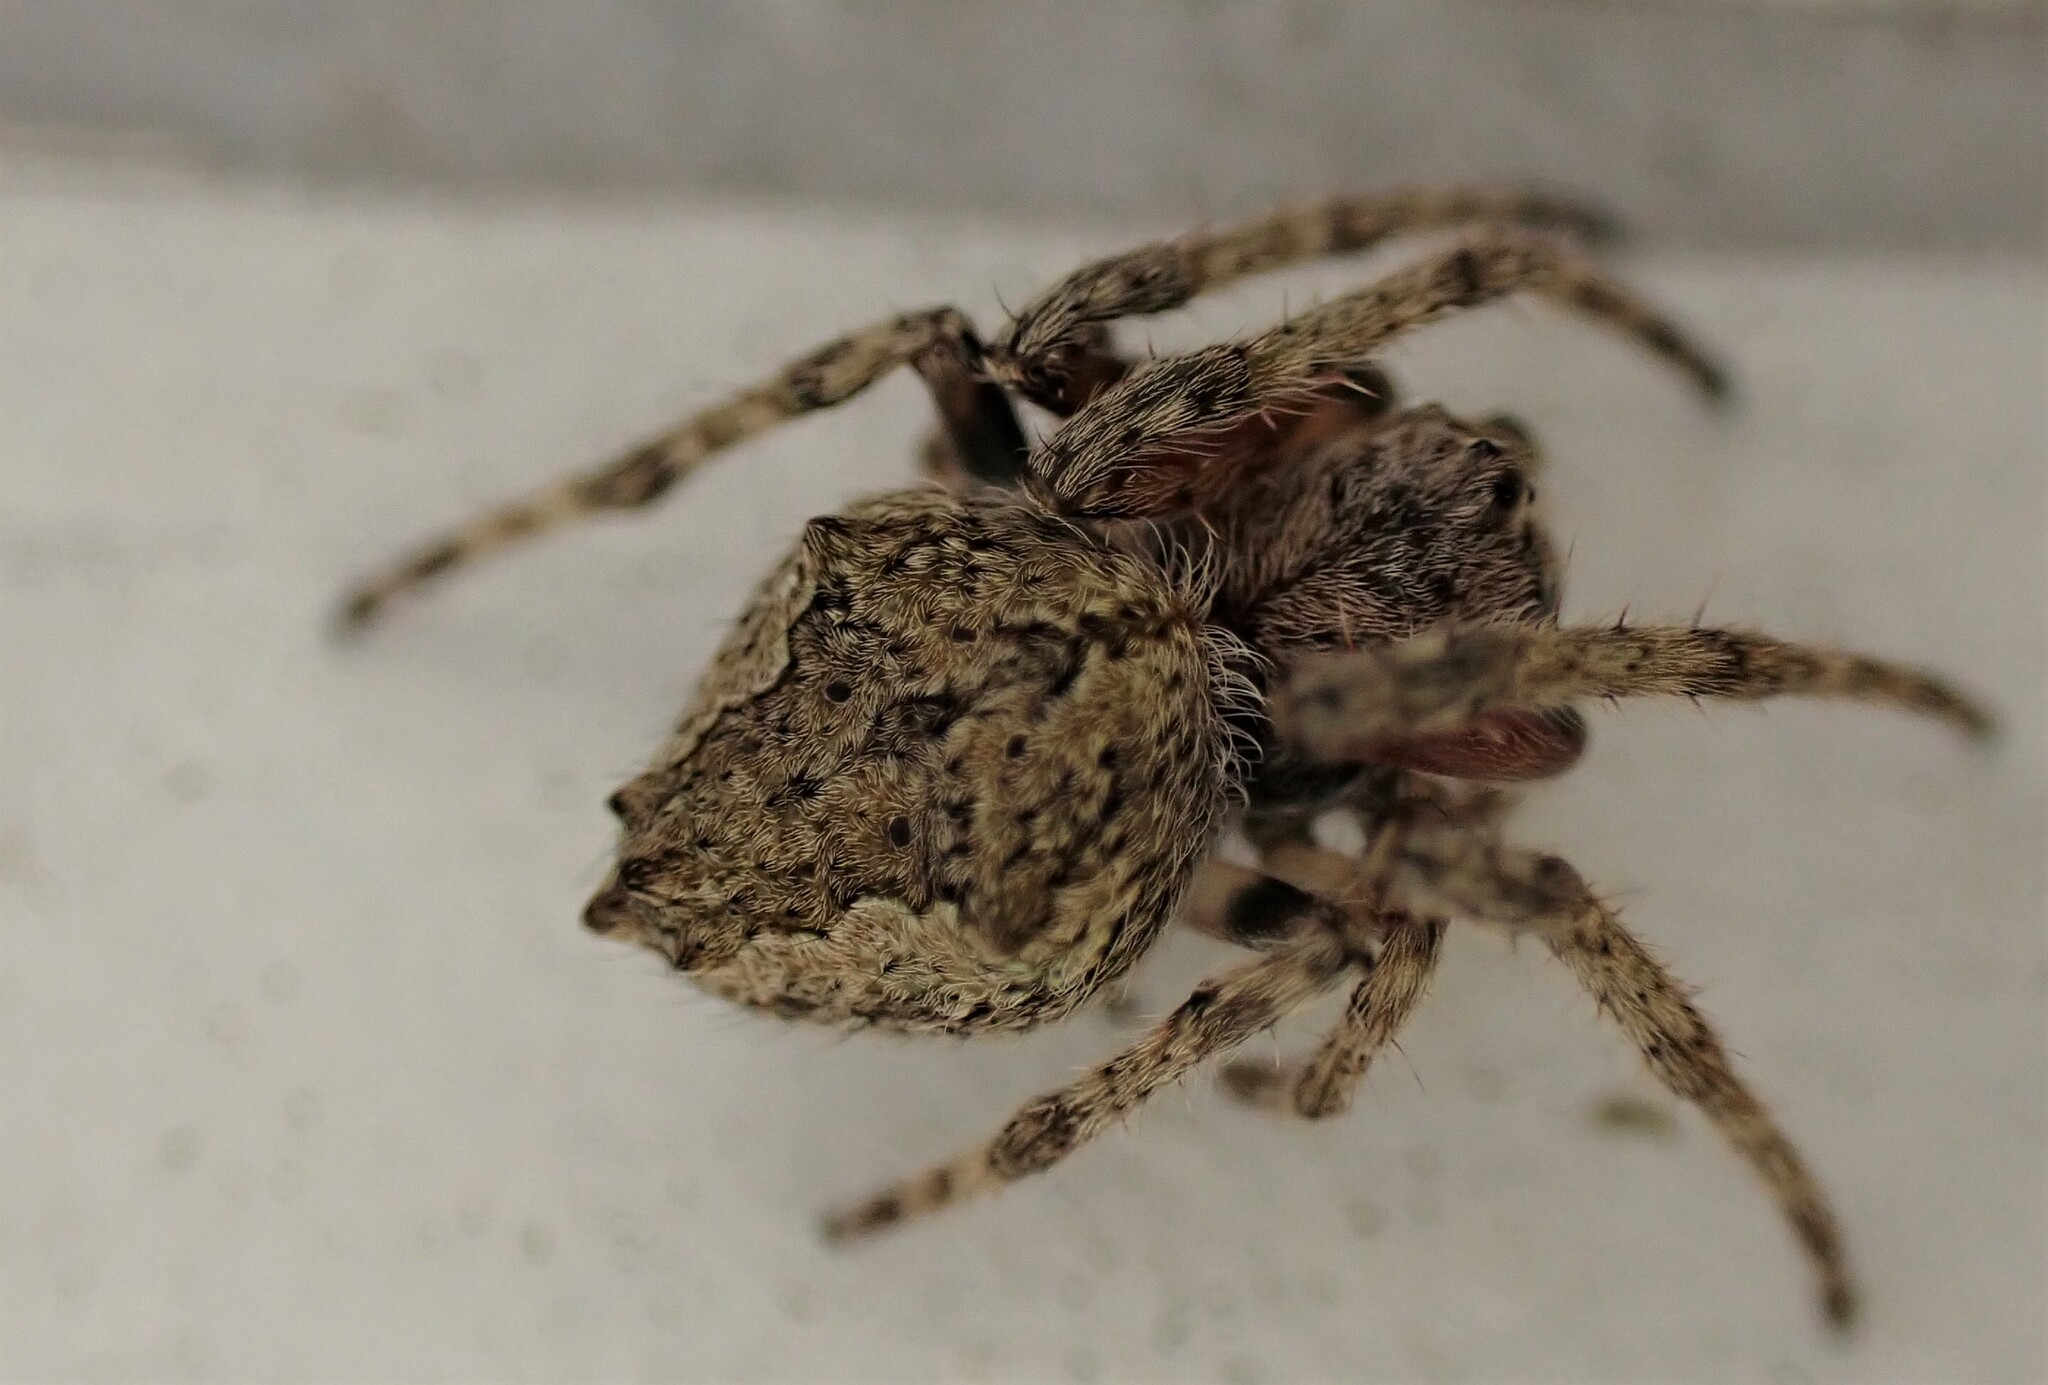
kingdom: Animalia
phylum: Arthropoda
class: Arachnida
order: Araneae
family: Araneidae
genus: Eriophora
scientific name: Eriophora pustulosa
